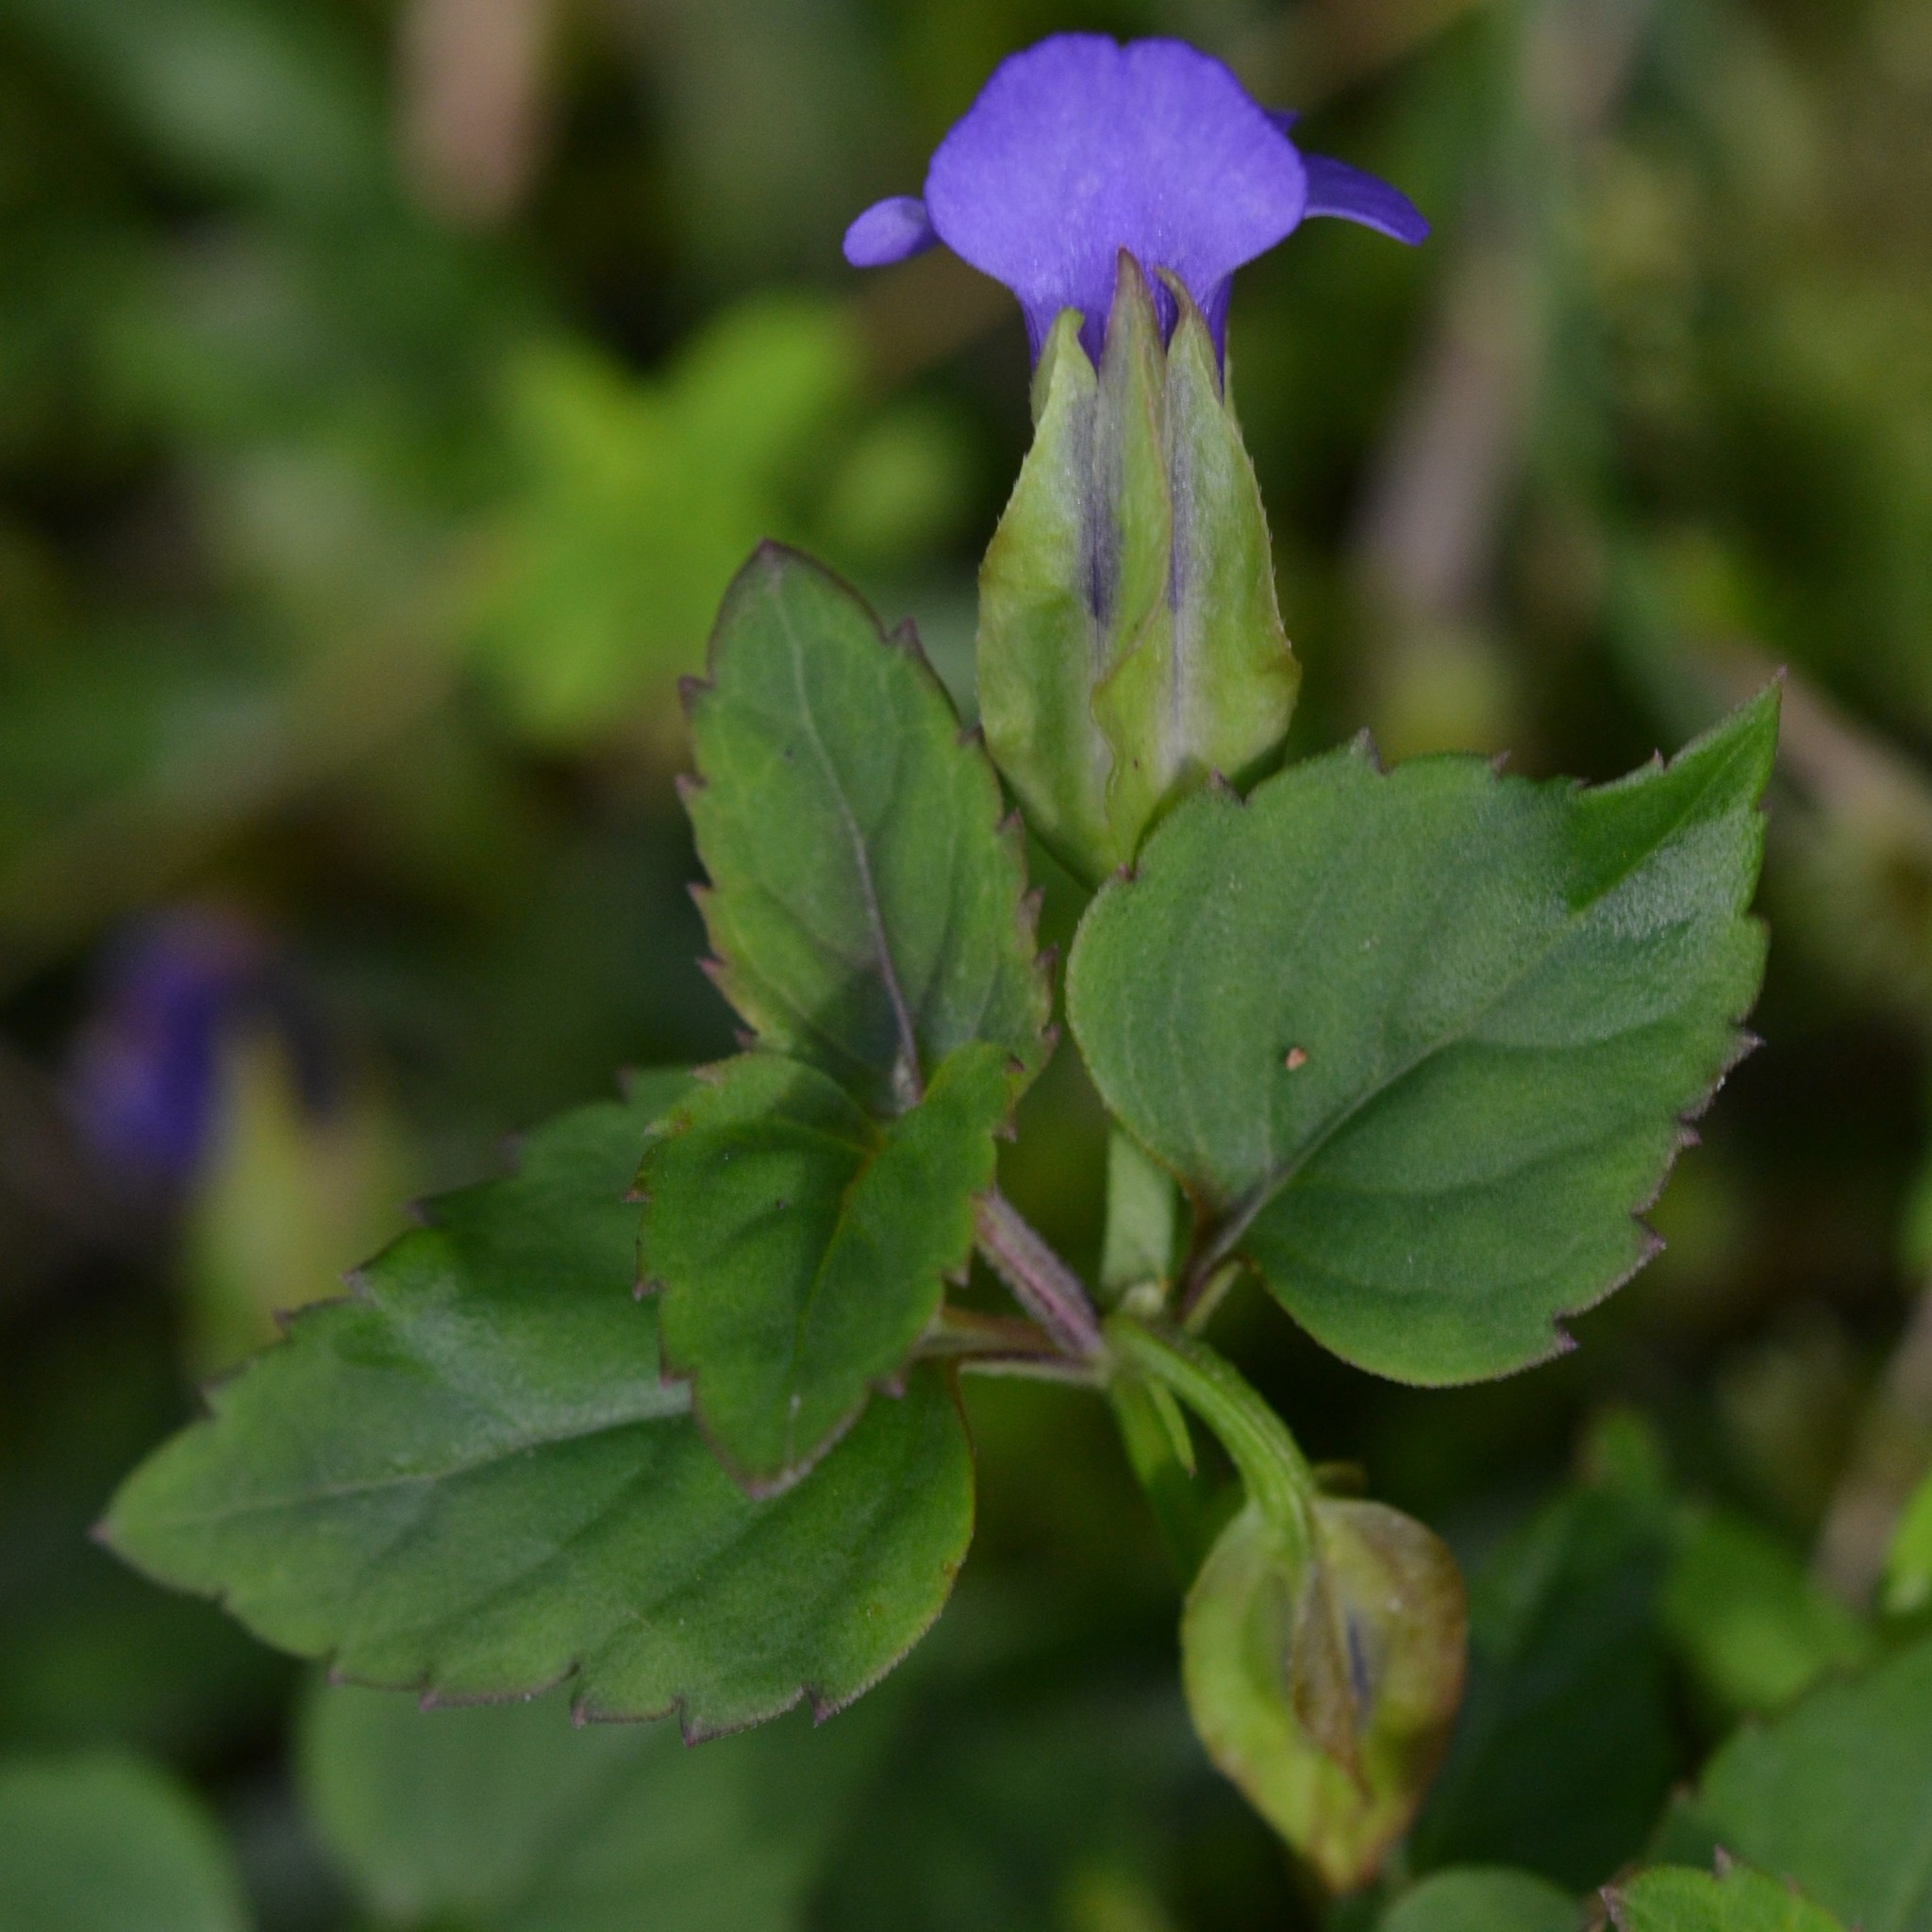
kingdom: Plantae
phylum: Tracheophyta
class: Magnoliopsida
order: Lamiales
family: Linderniaceae
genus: Torenia
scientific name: Torenia asiatica
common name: Wishbone flower
